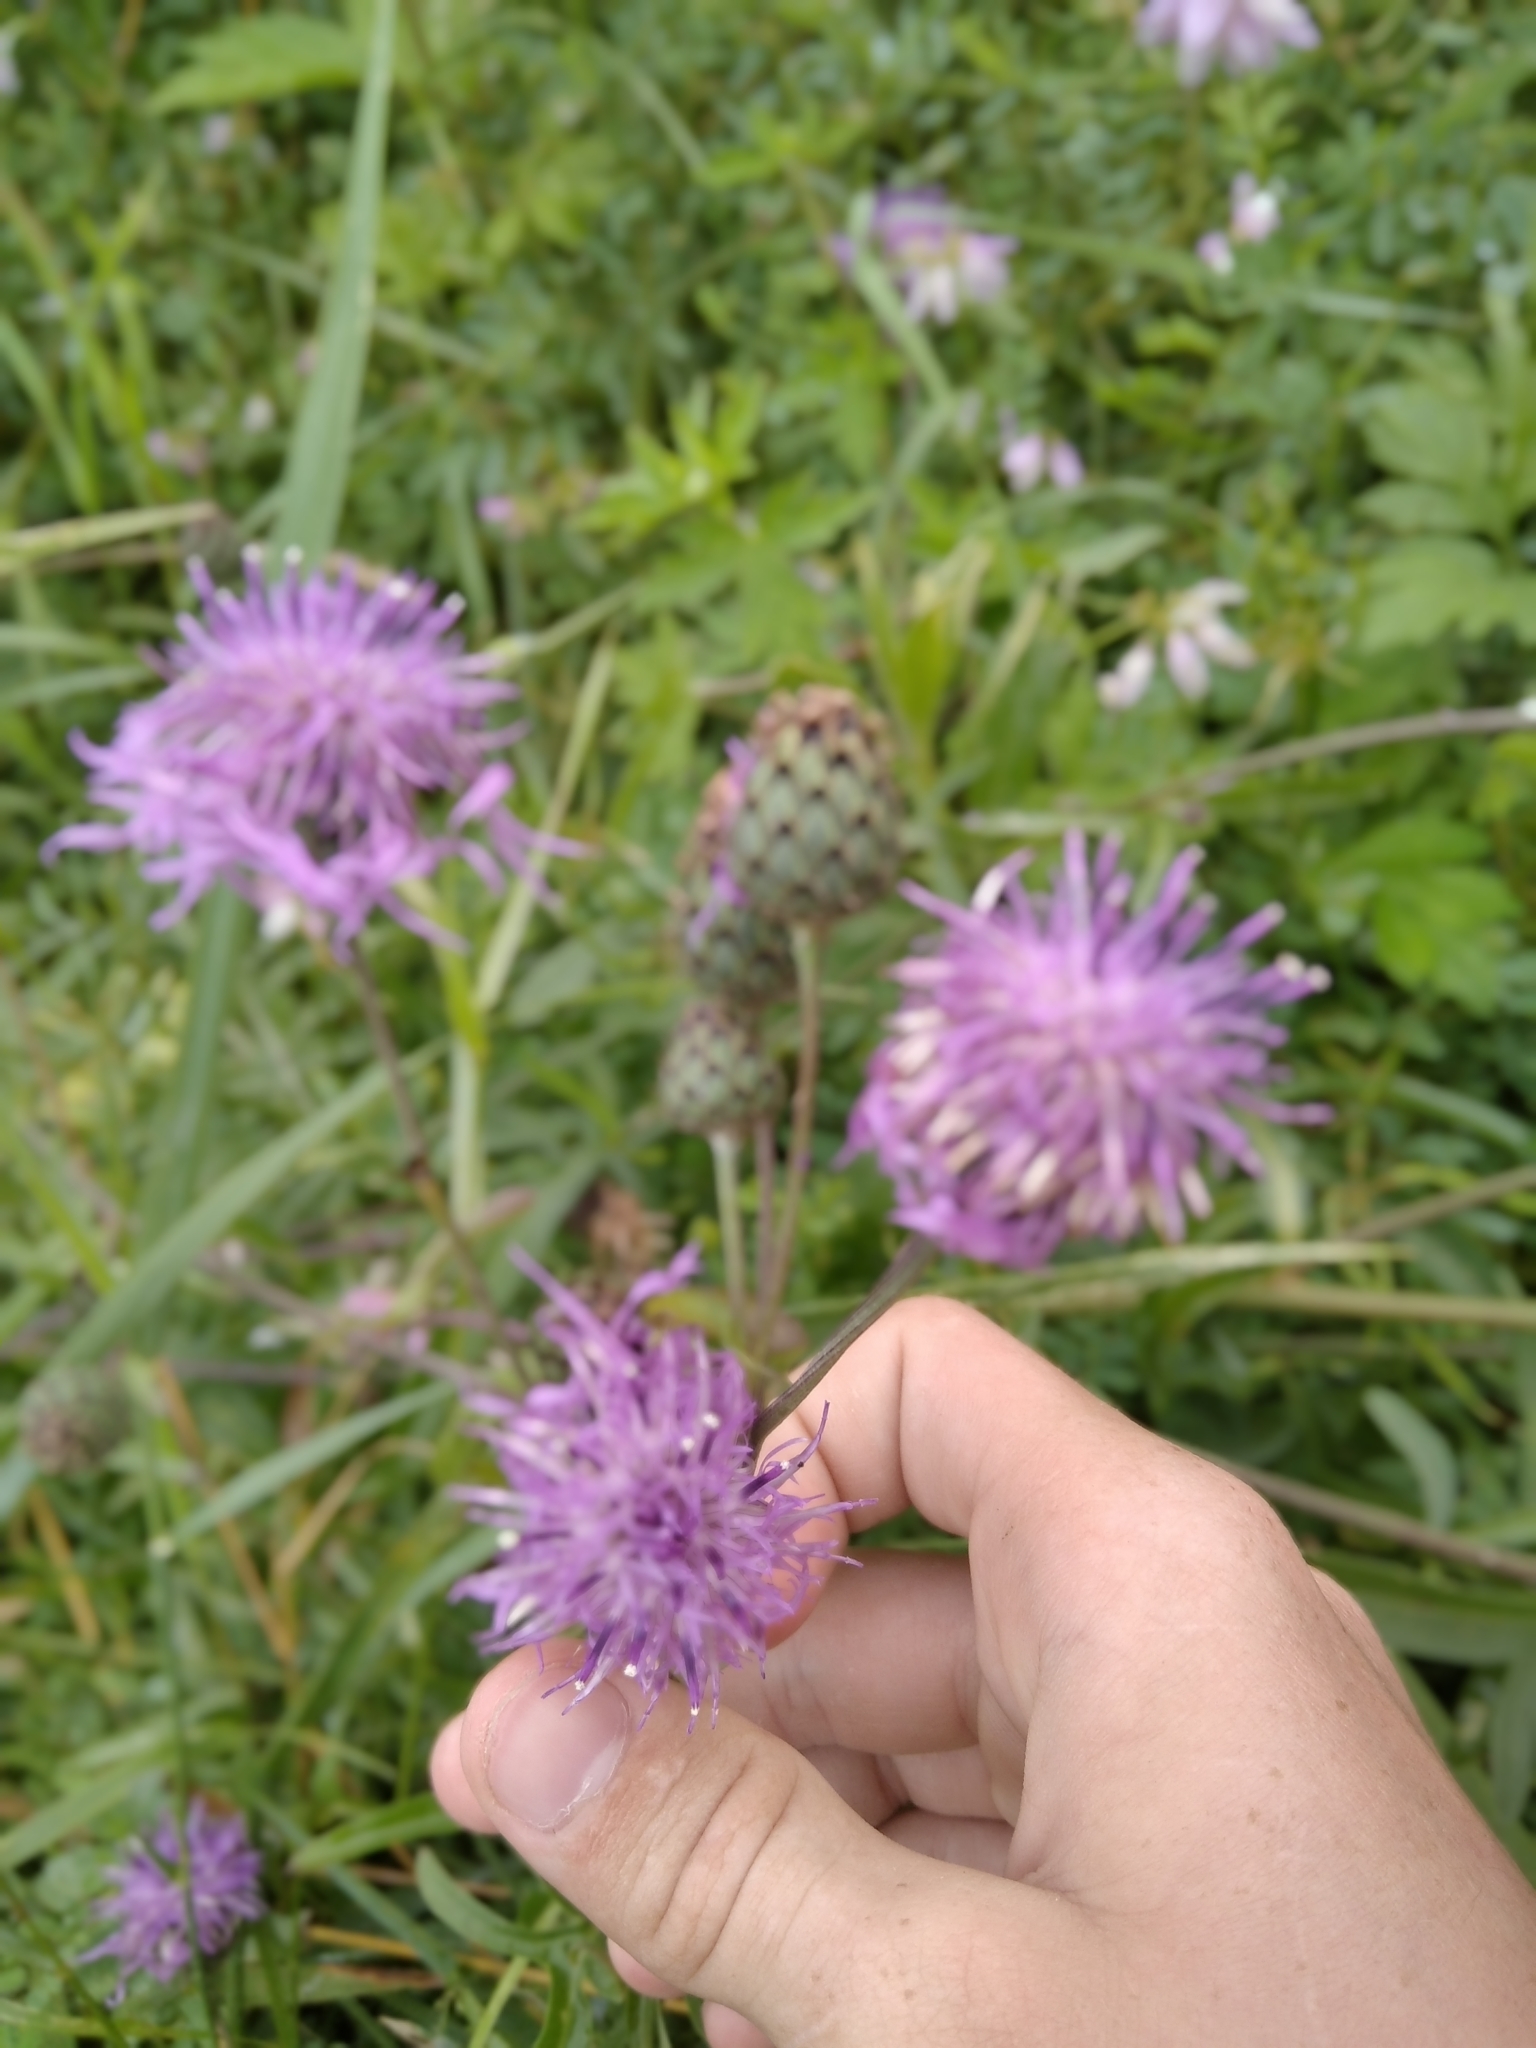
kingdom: Plantae
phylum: Tracheophyta
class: Magnoliopsida
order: Asterales
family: Asteraceae
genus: Centaurea
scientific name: Centaurea scabiosa
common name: Greater knapweed
